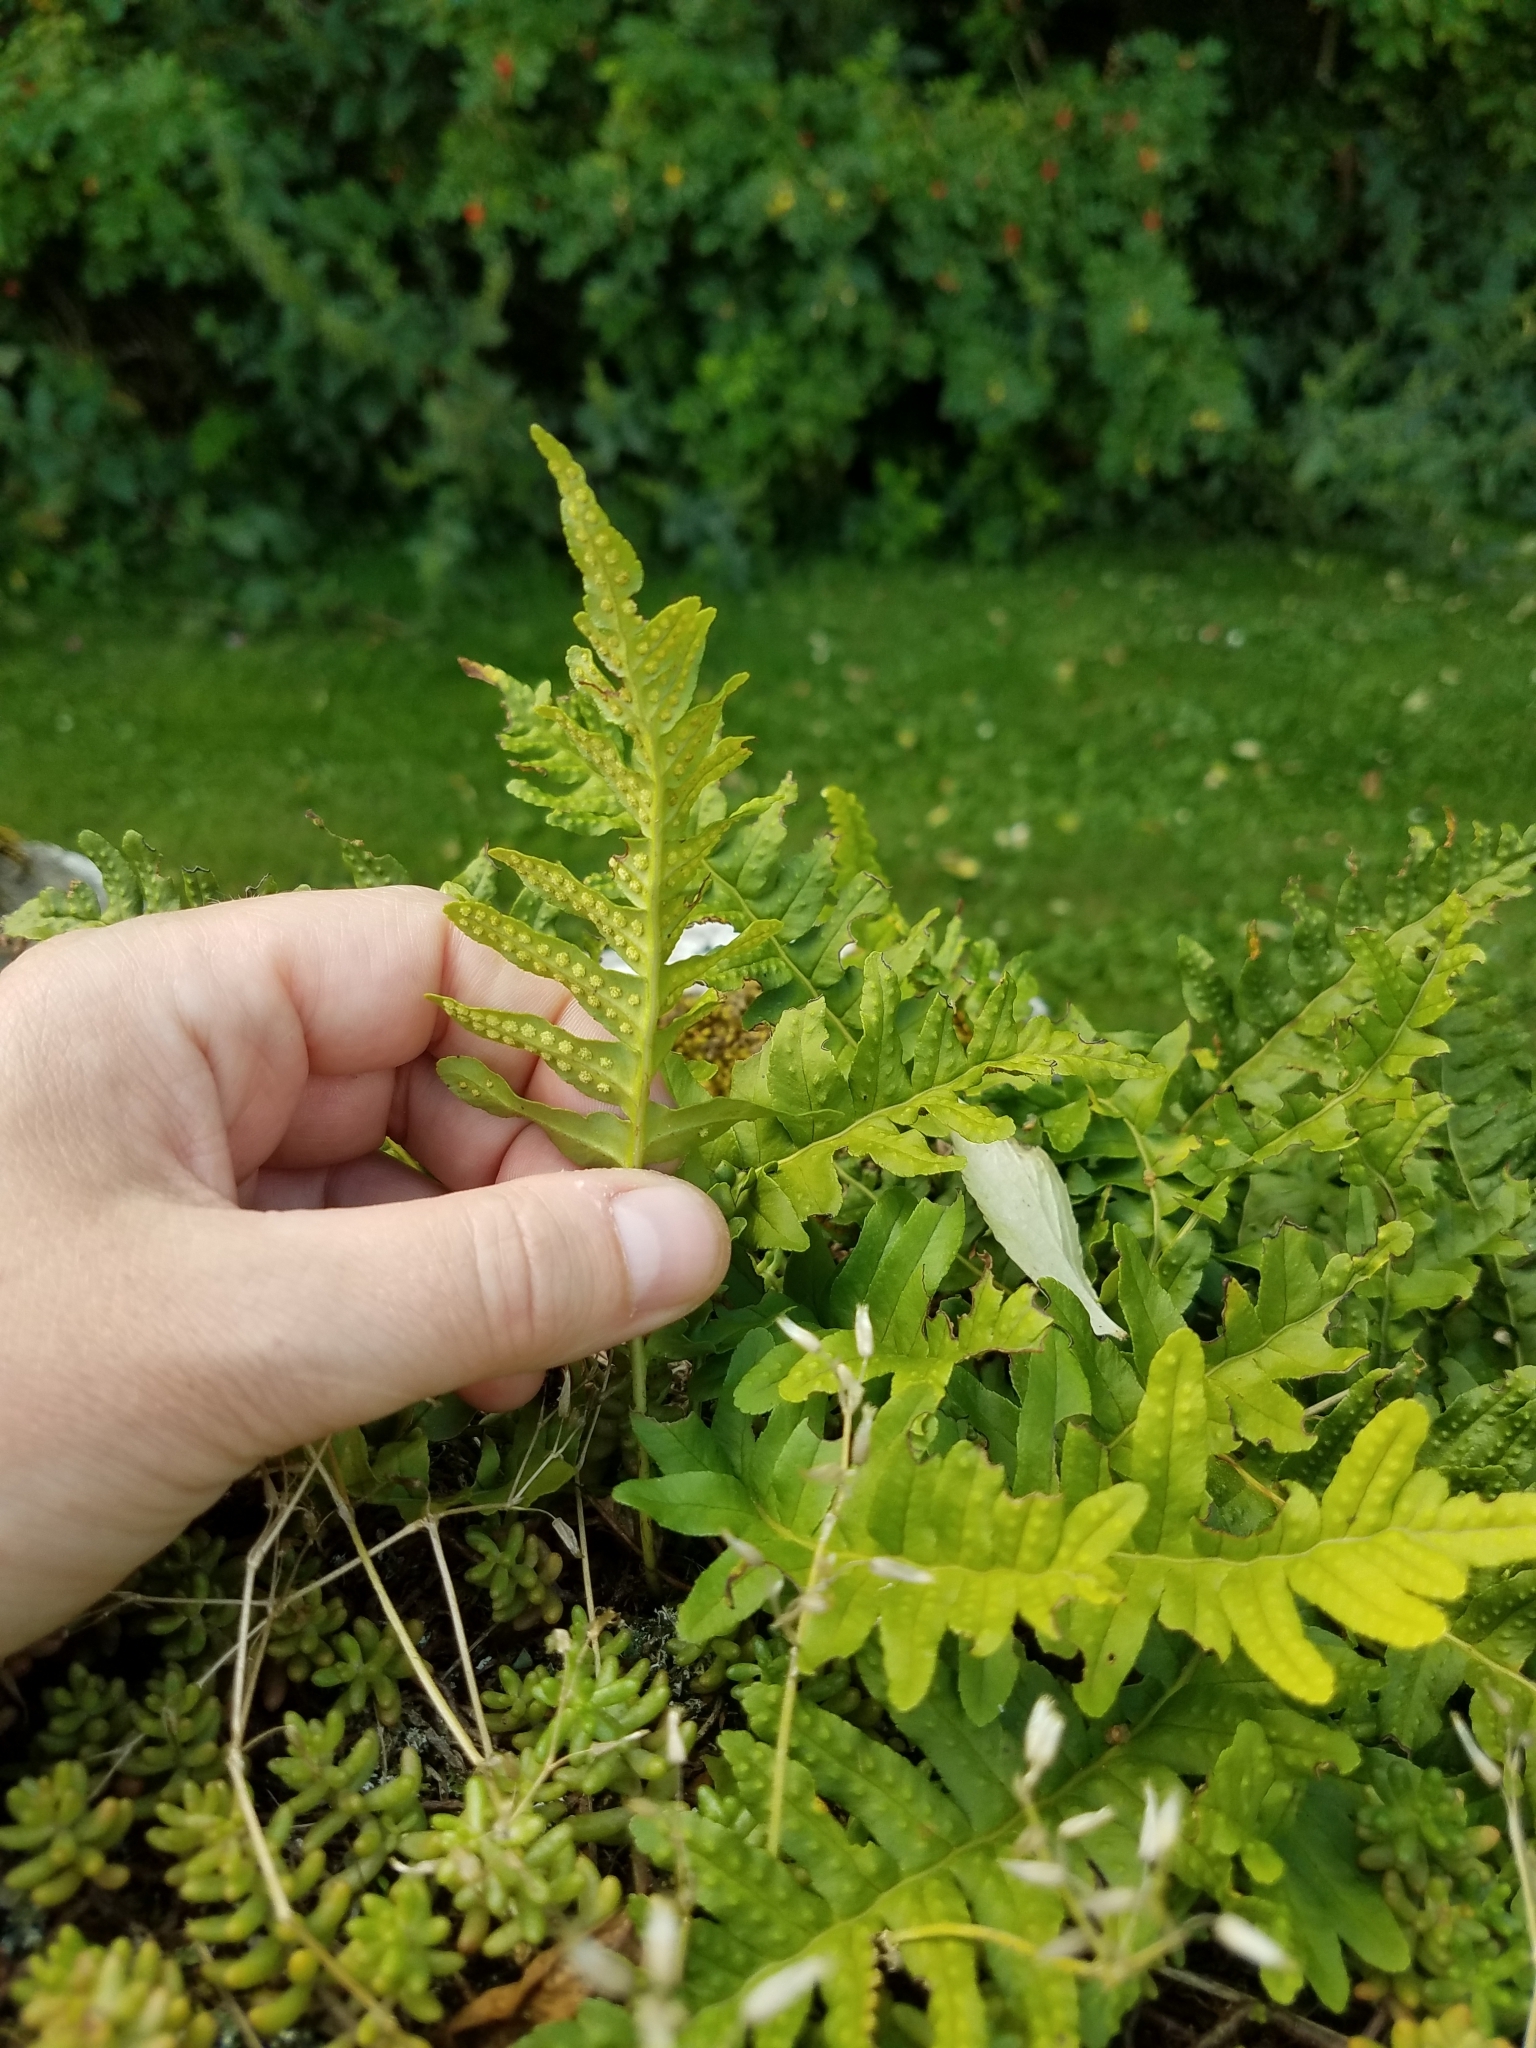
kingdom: Plantae
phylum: Tracheophyta
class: Polypodiopsida
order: Polypodiales
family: Polypodiaceae
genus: Polypodium
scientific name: Polypodium vulgare
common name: Common polypody
